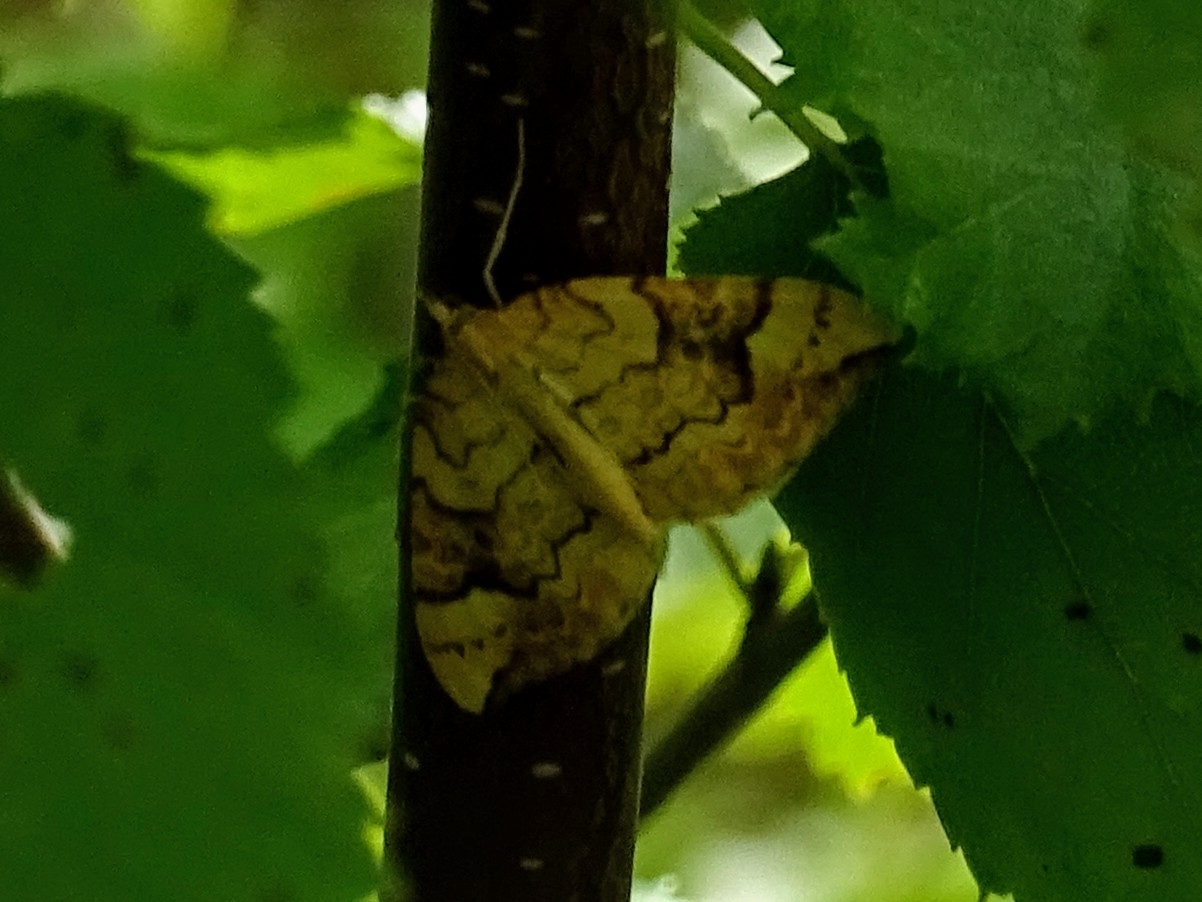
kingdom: Animalia
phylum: Arthropoda
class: Insecta
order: Lepidoptera
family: Geometridae
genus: Eulithis
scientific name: Eulithis populata
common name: Northern spinach
